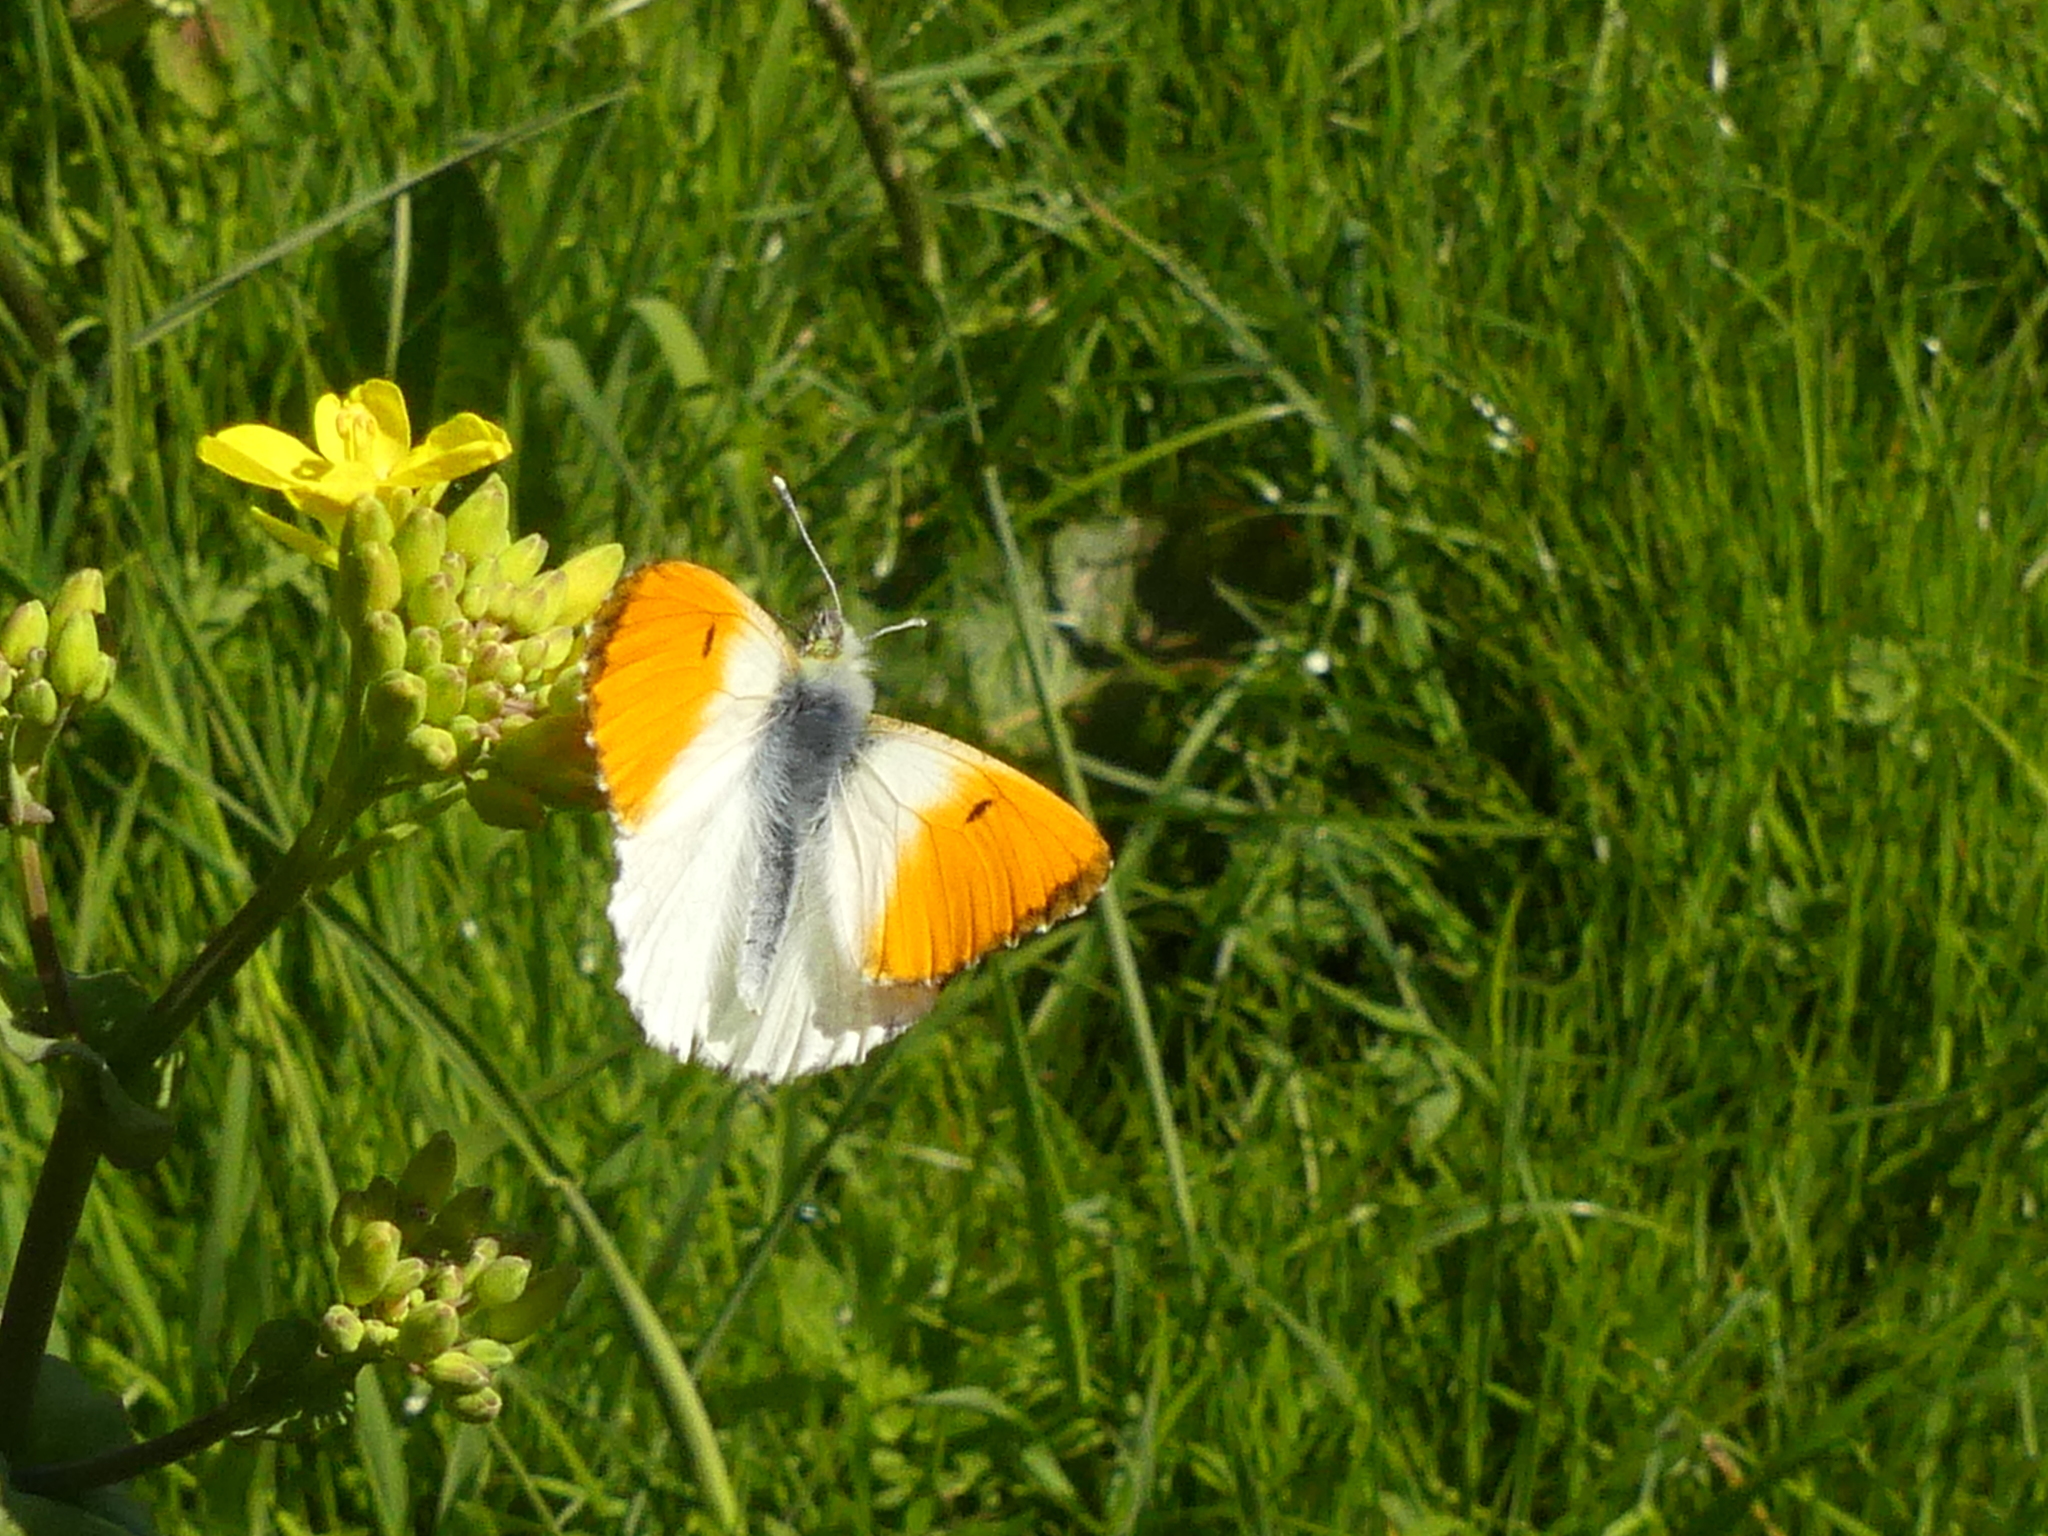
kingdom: Animalia
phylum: Arthropoda
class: Insecta
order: Lepidoptera
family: Pieridae
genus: Anthocharis
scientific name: Anthocharis cardamines
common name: Orange-tip
